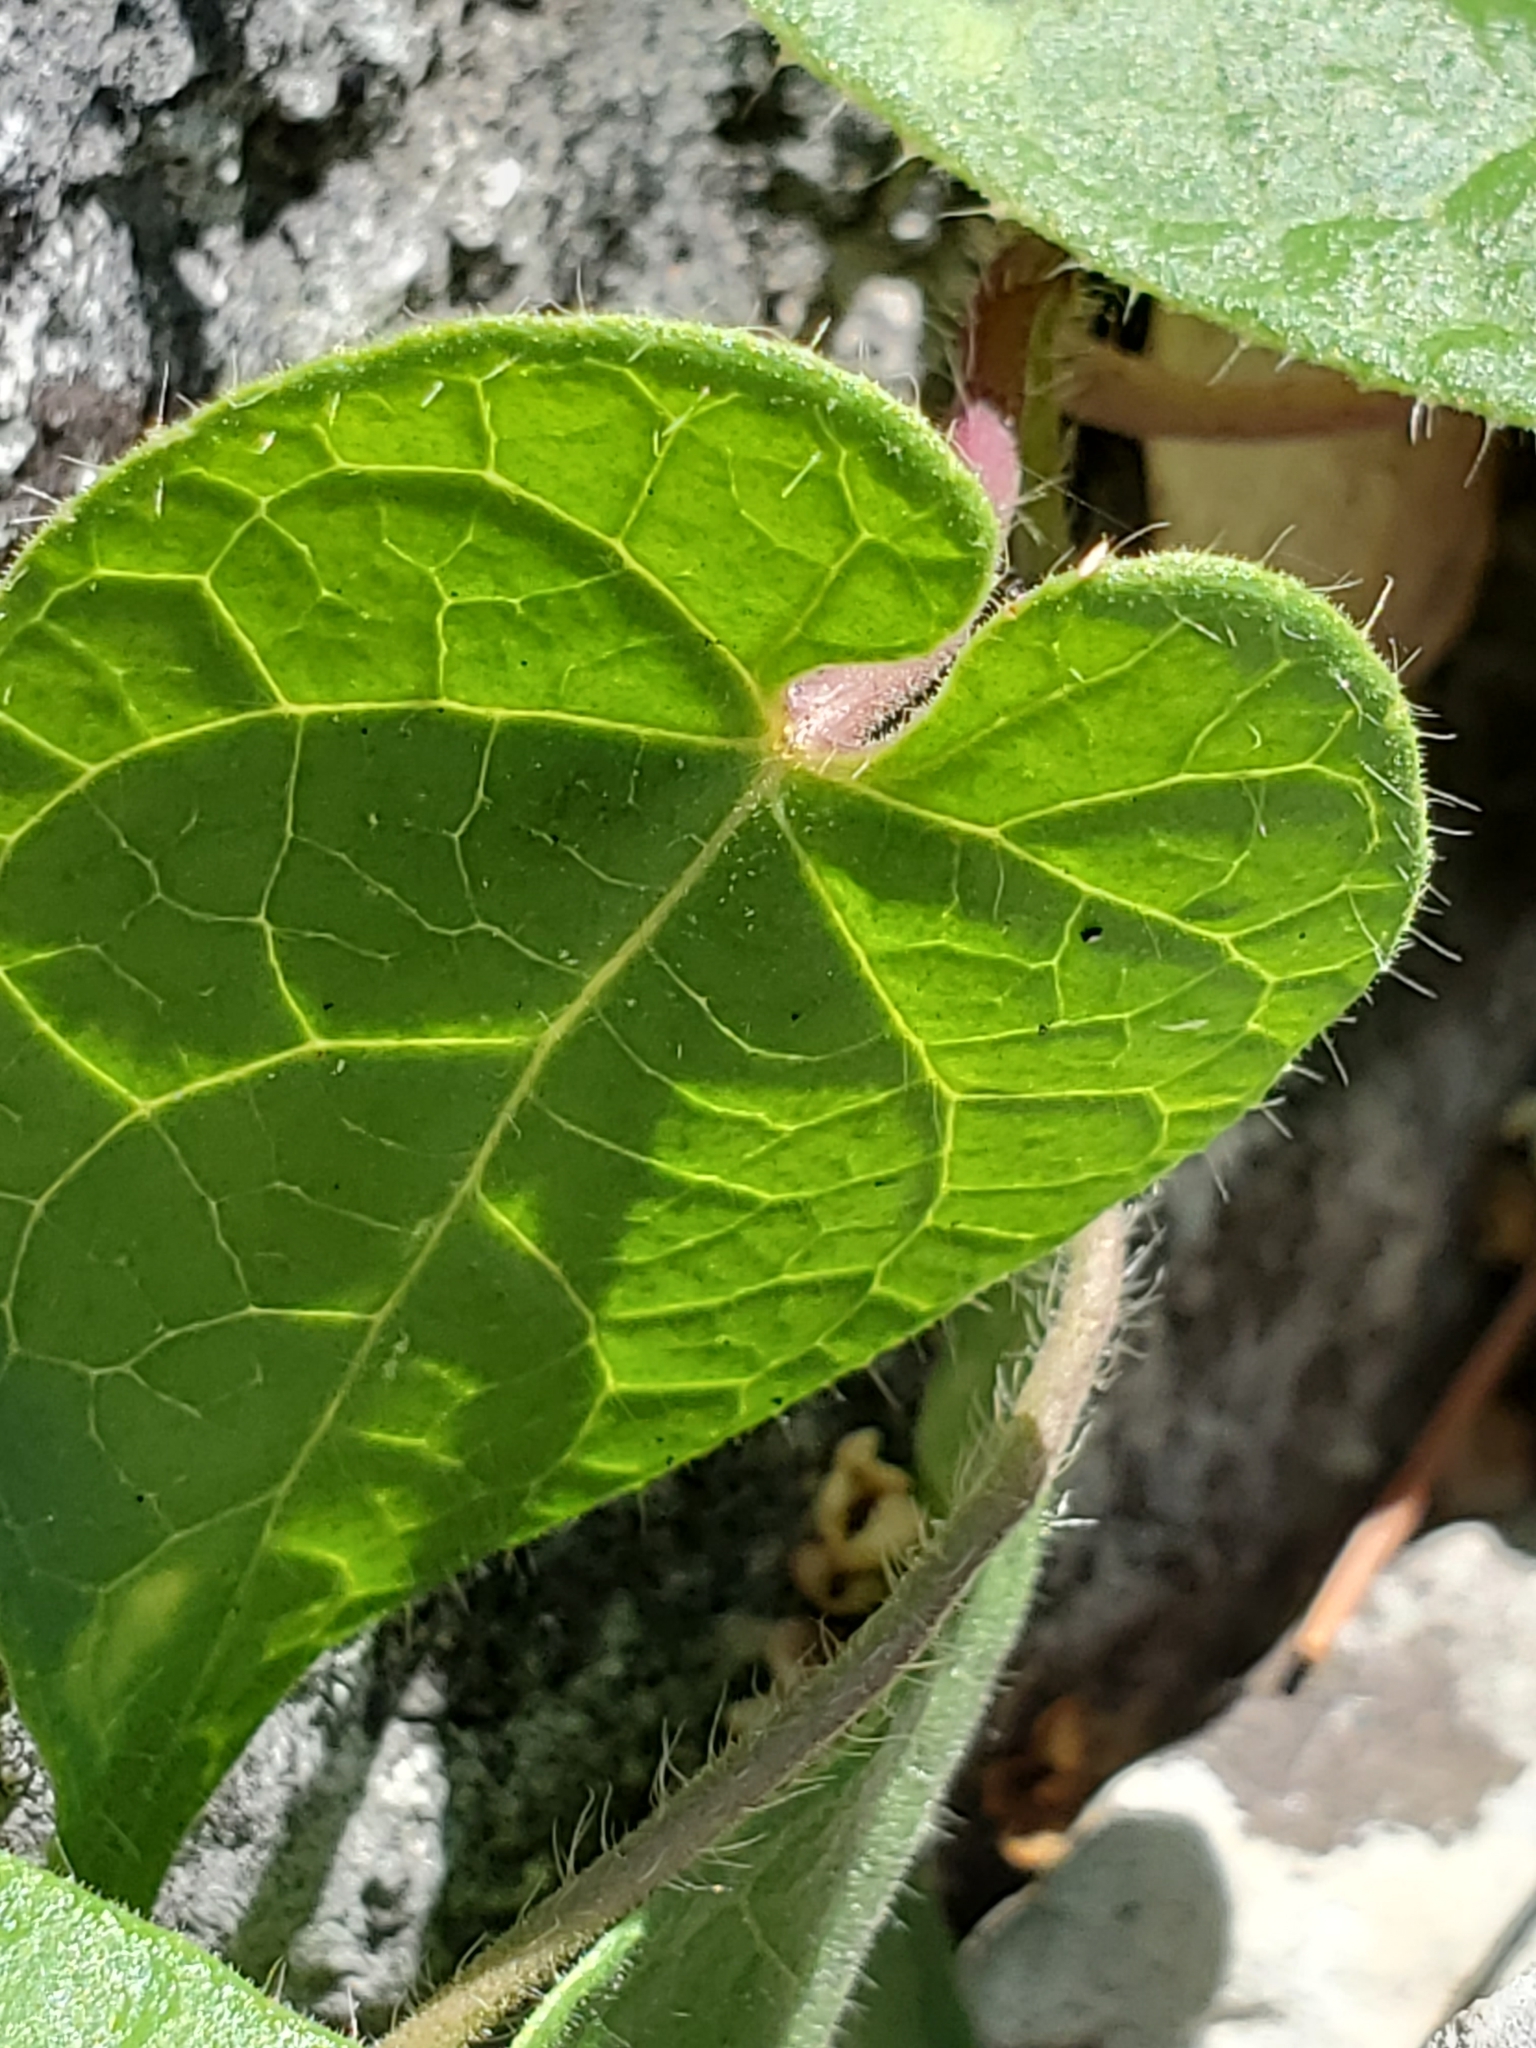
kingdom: Plantae
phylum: Tracheophyta
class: Magnoliopsida
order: Gentianales
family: Apocynaceae
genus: Dictyanthus
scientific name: Dictyanthus reticulatus
